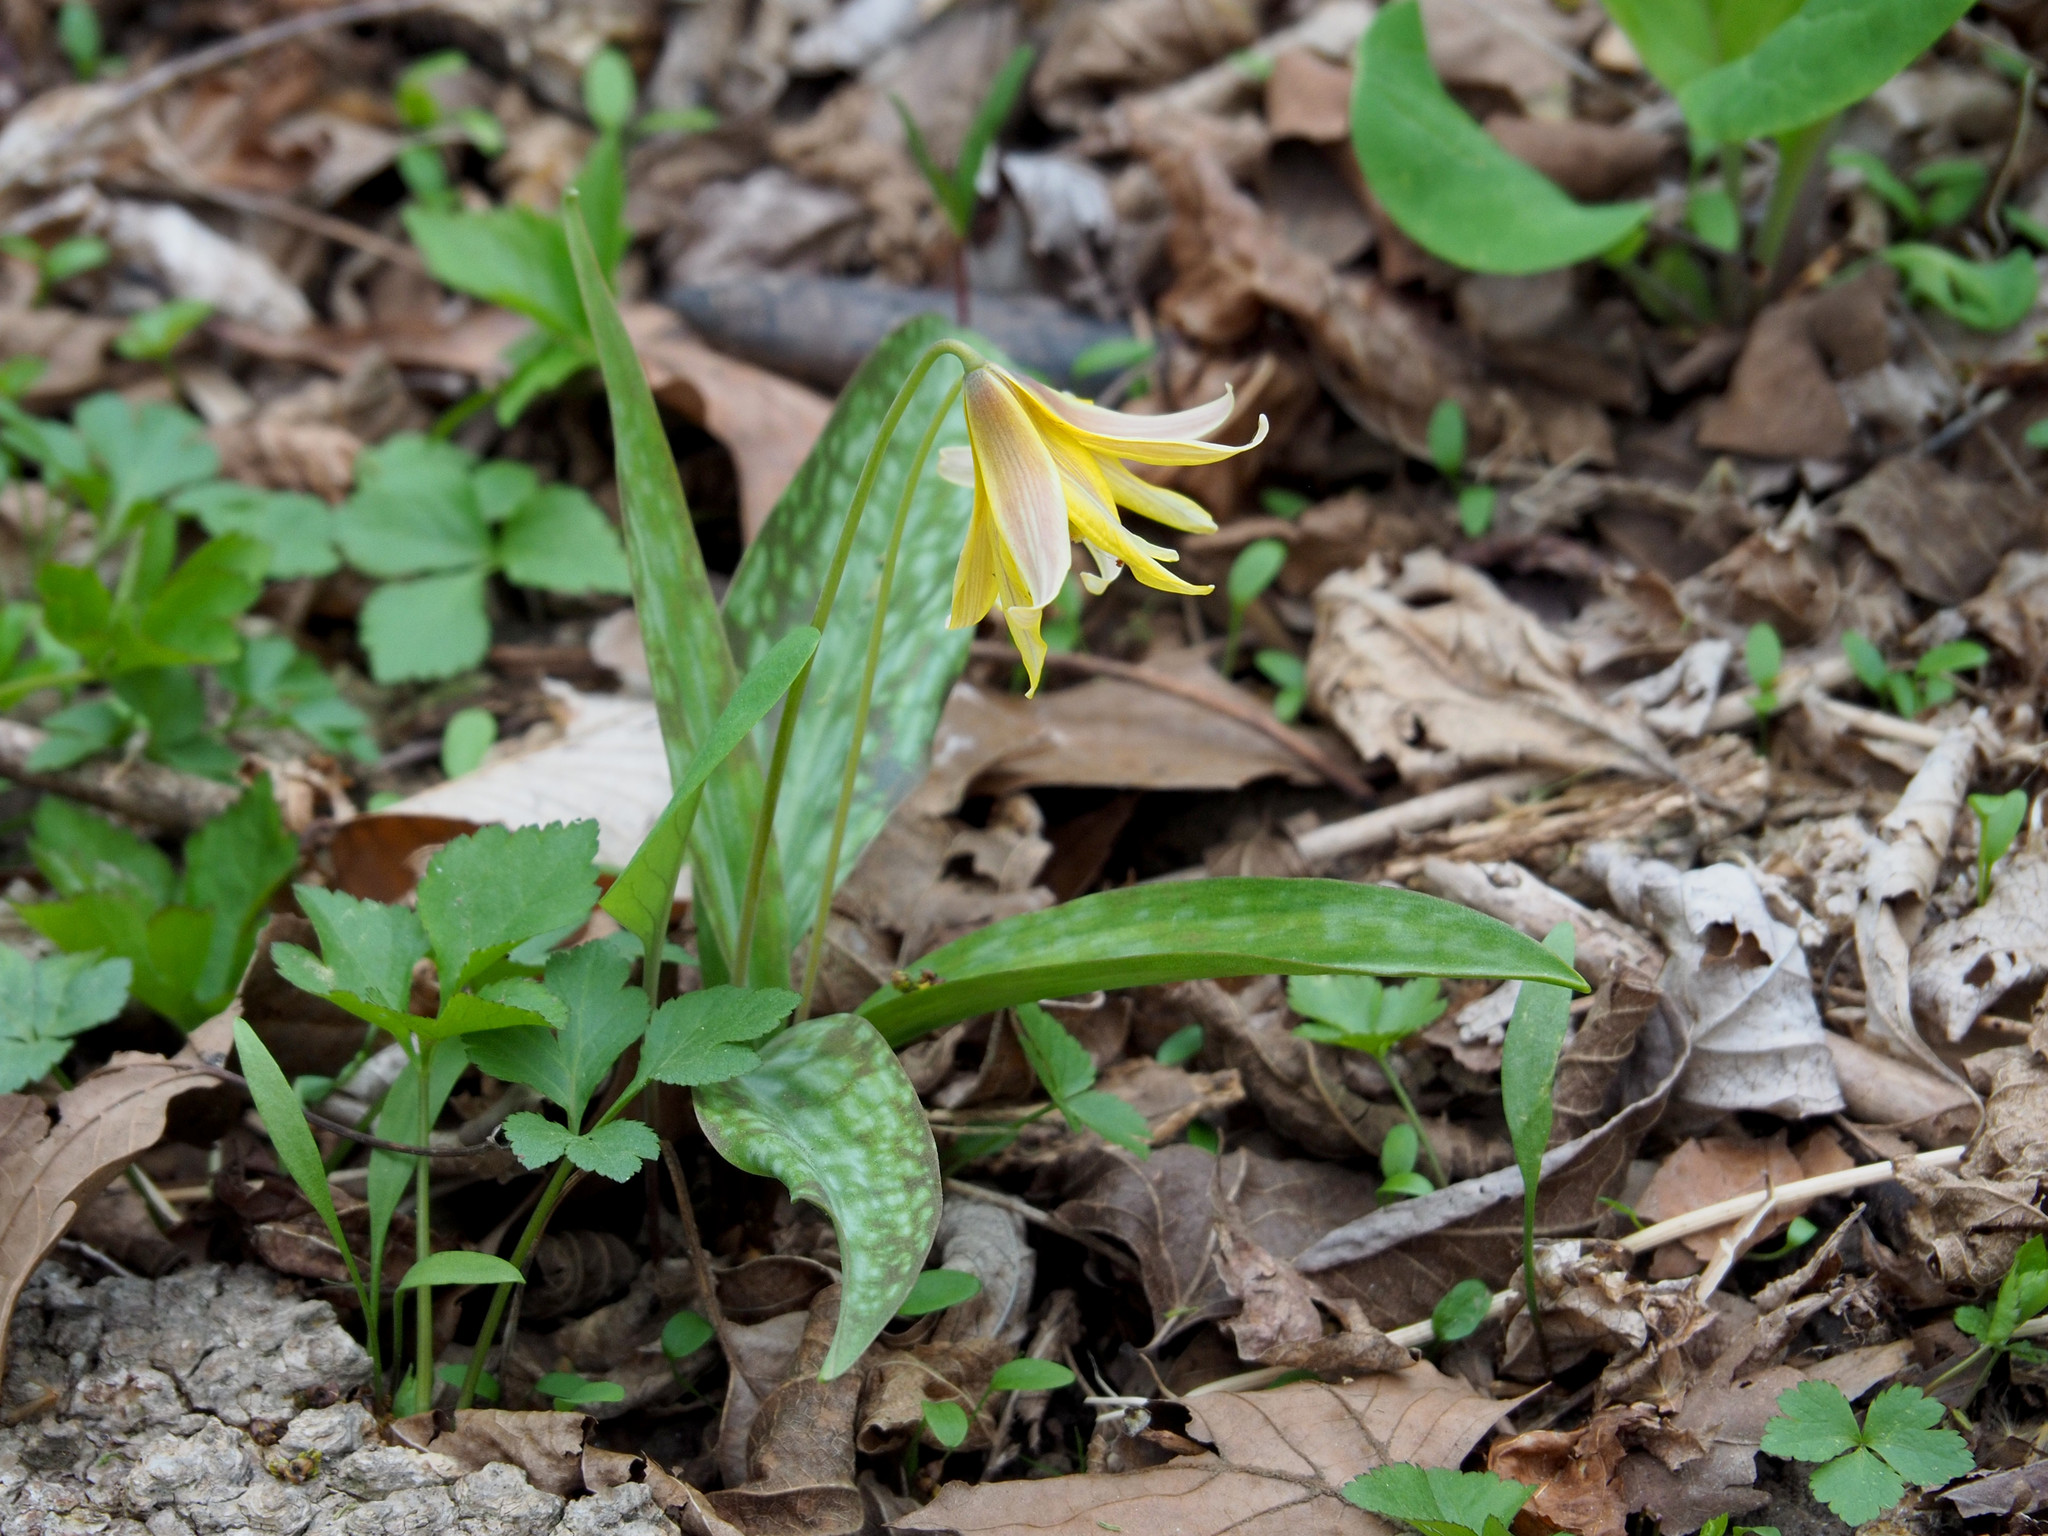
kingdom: Plantae
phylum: Tracheophyta
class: Liliopsida
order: Liliales
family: Liliaceae
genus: Erythronium
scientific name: Erythronium americanum
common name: Yellow adder's-tongue
